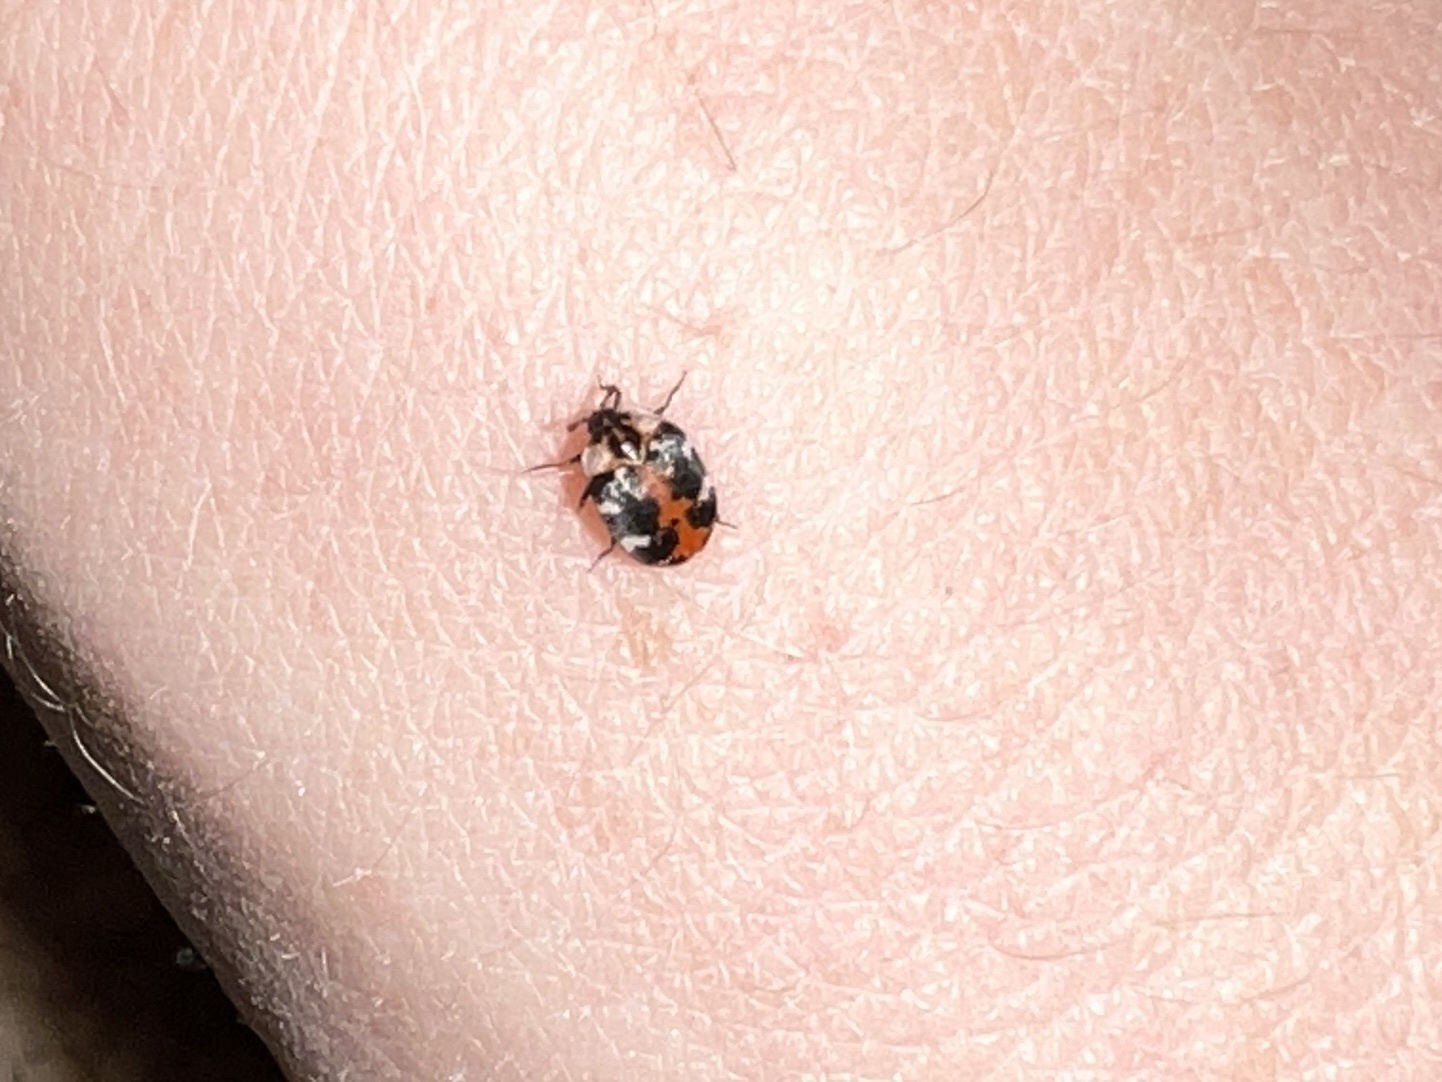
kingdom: Animalia
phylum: Arthropoda
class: Insecta
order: Coleoptera
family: Dermestidae
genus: Anthrenus
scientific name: Anthrenus scrophulariae
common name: Buffalo carpet beetle
